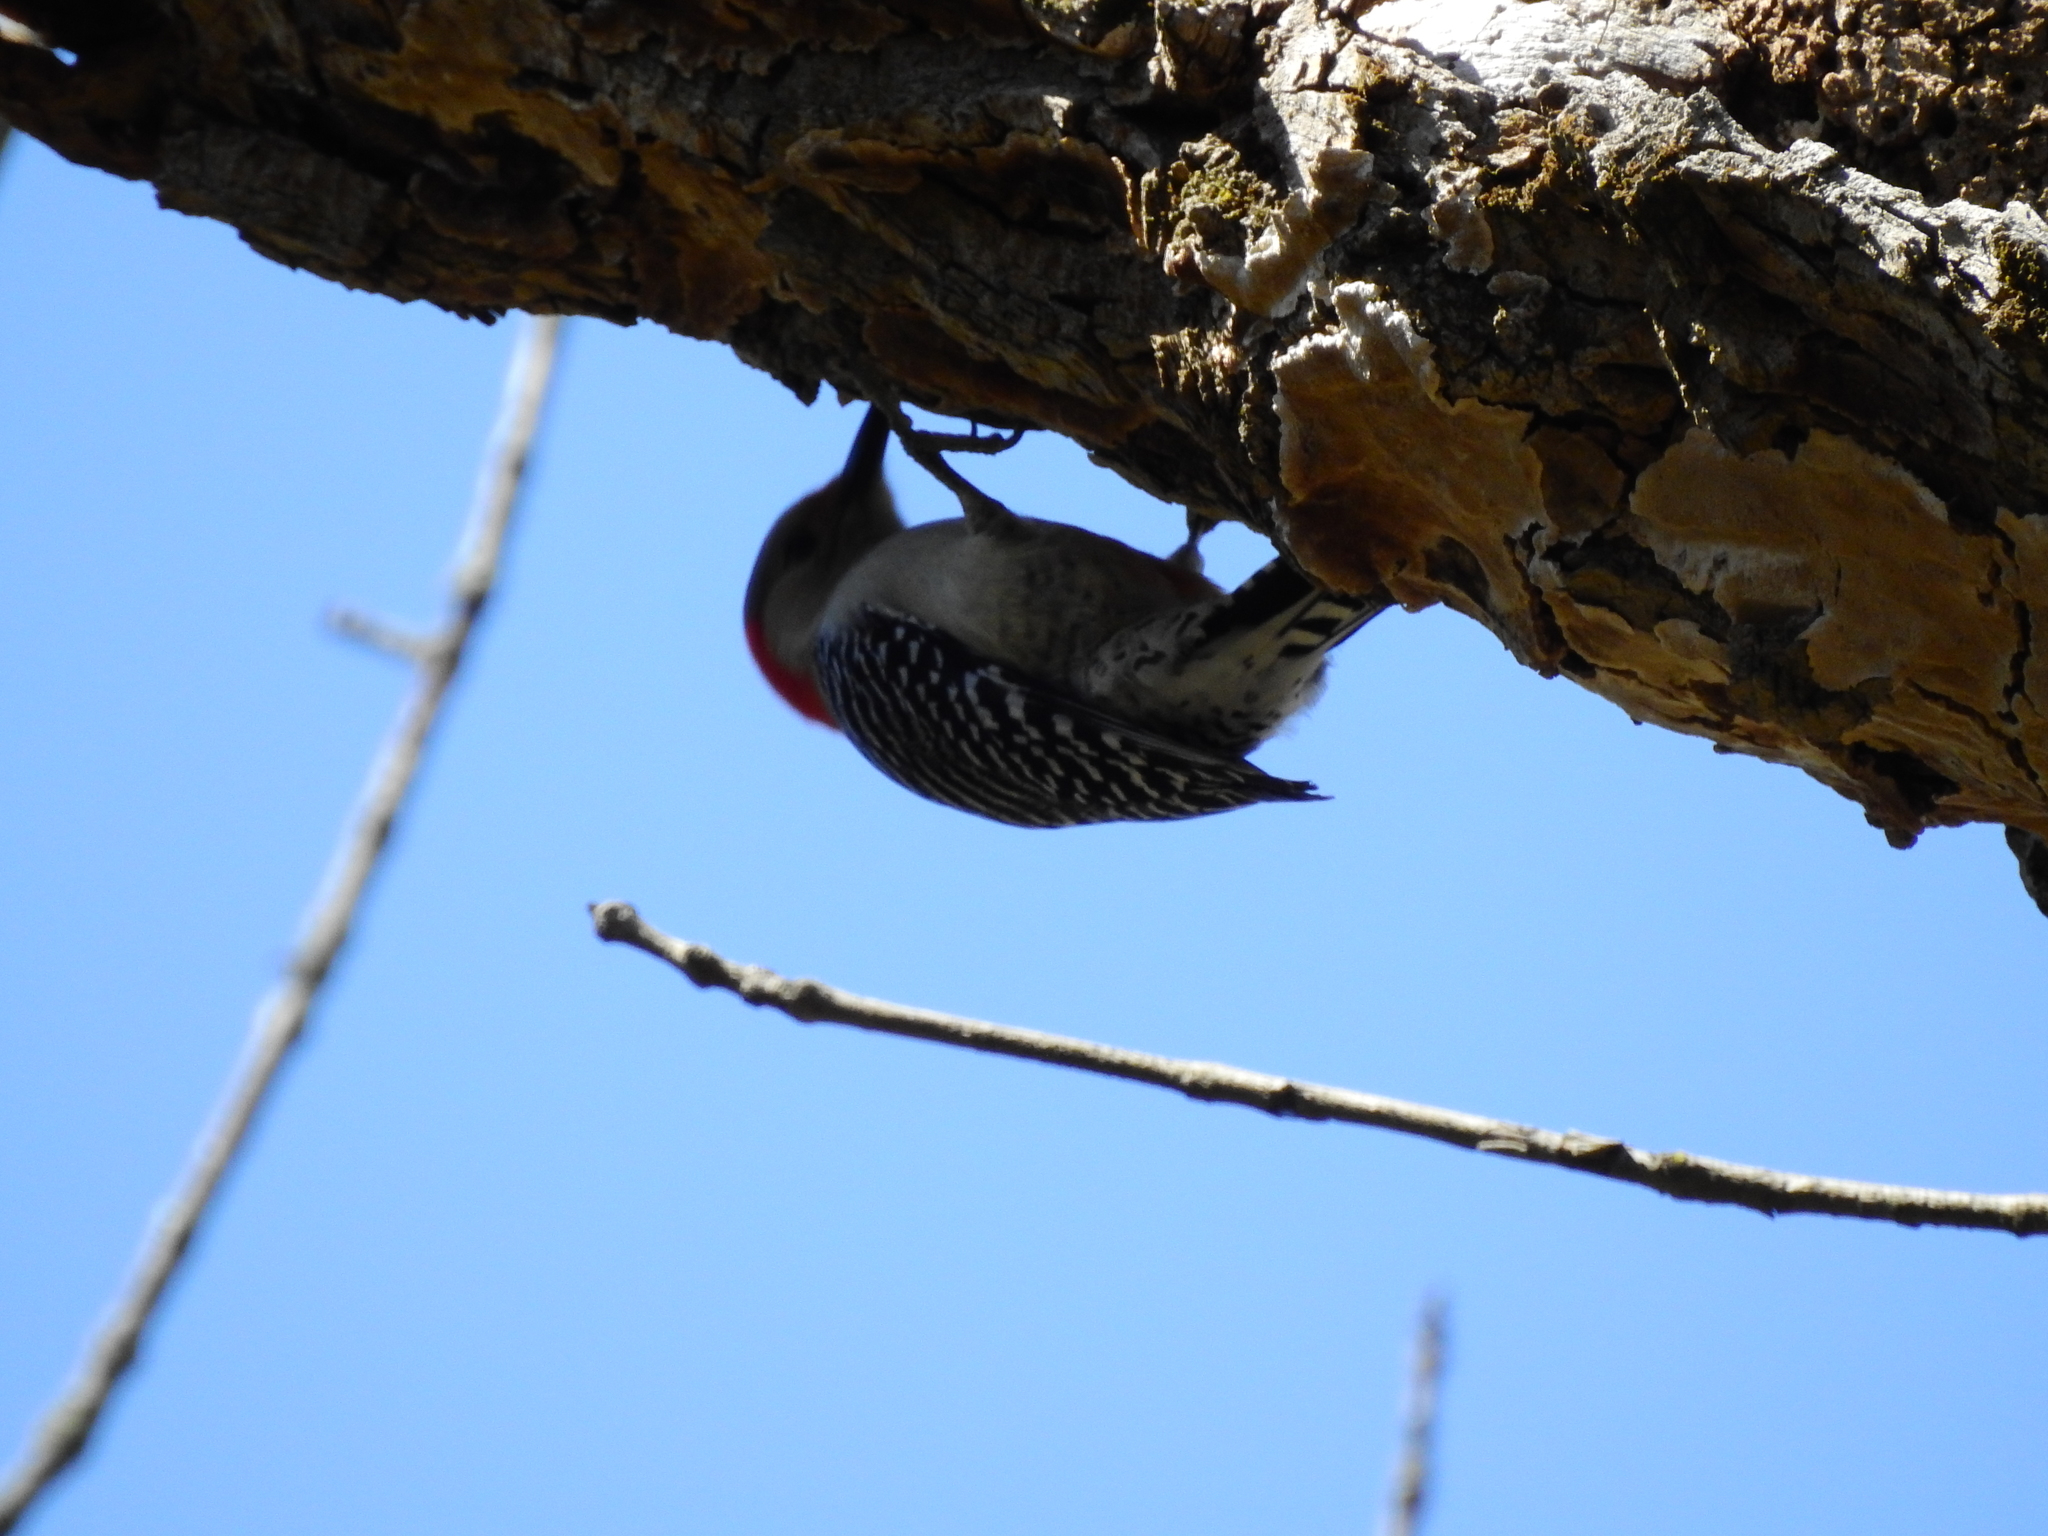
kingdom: Animalia
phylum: Chordata
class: Aves
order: Piciformes
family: Picidae
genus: Melanerpes
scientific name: Melanerpes carolinus
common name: Red-bellied woodpecker
